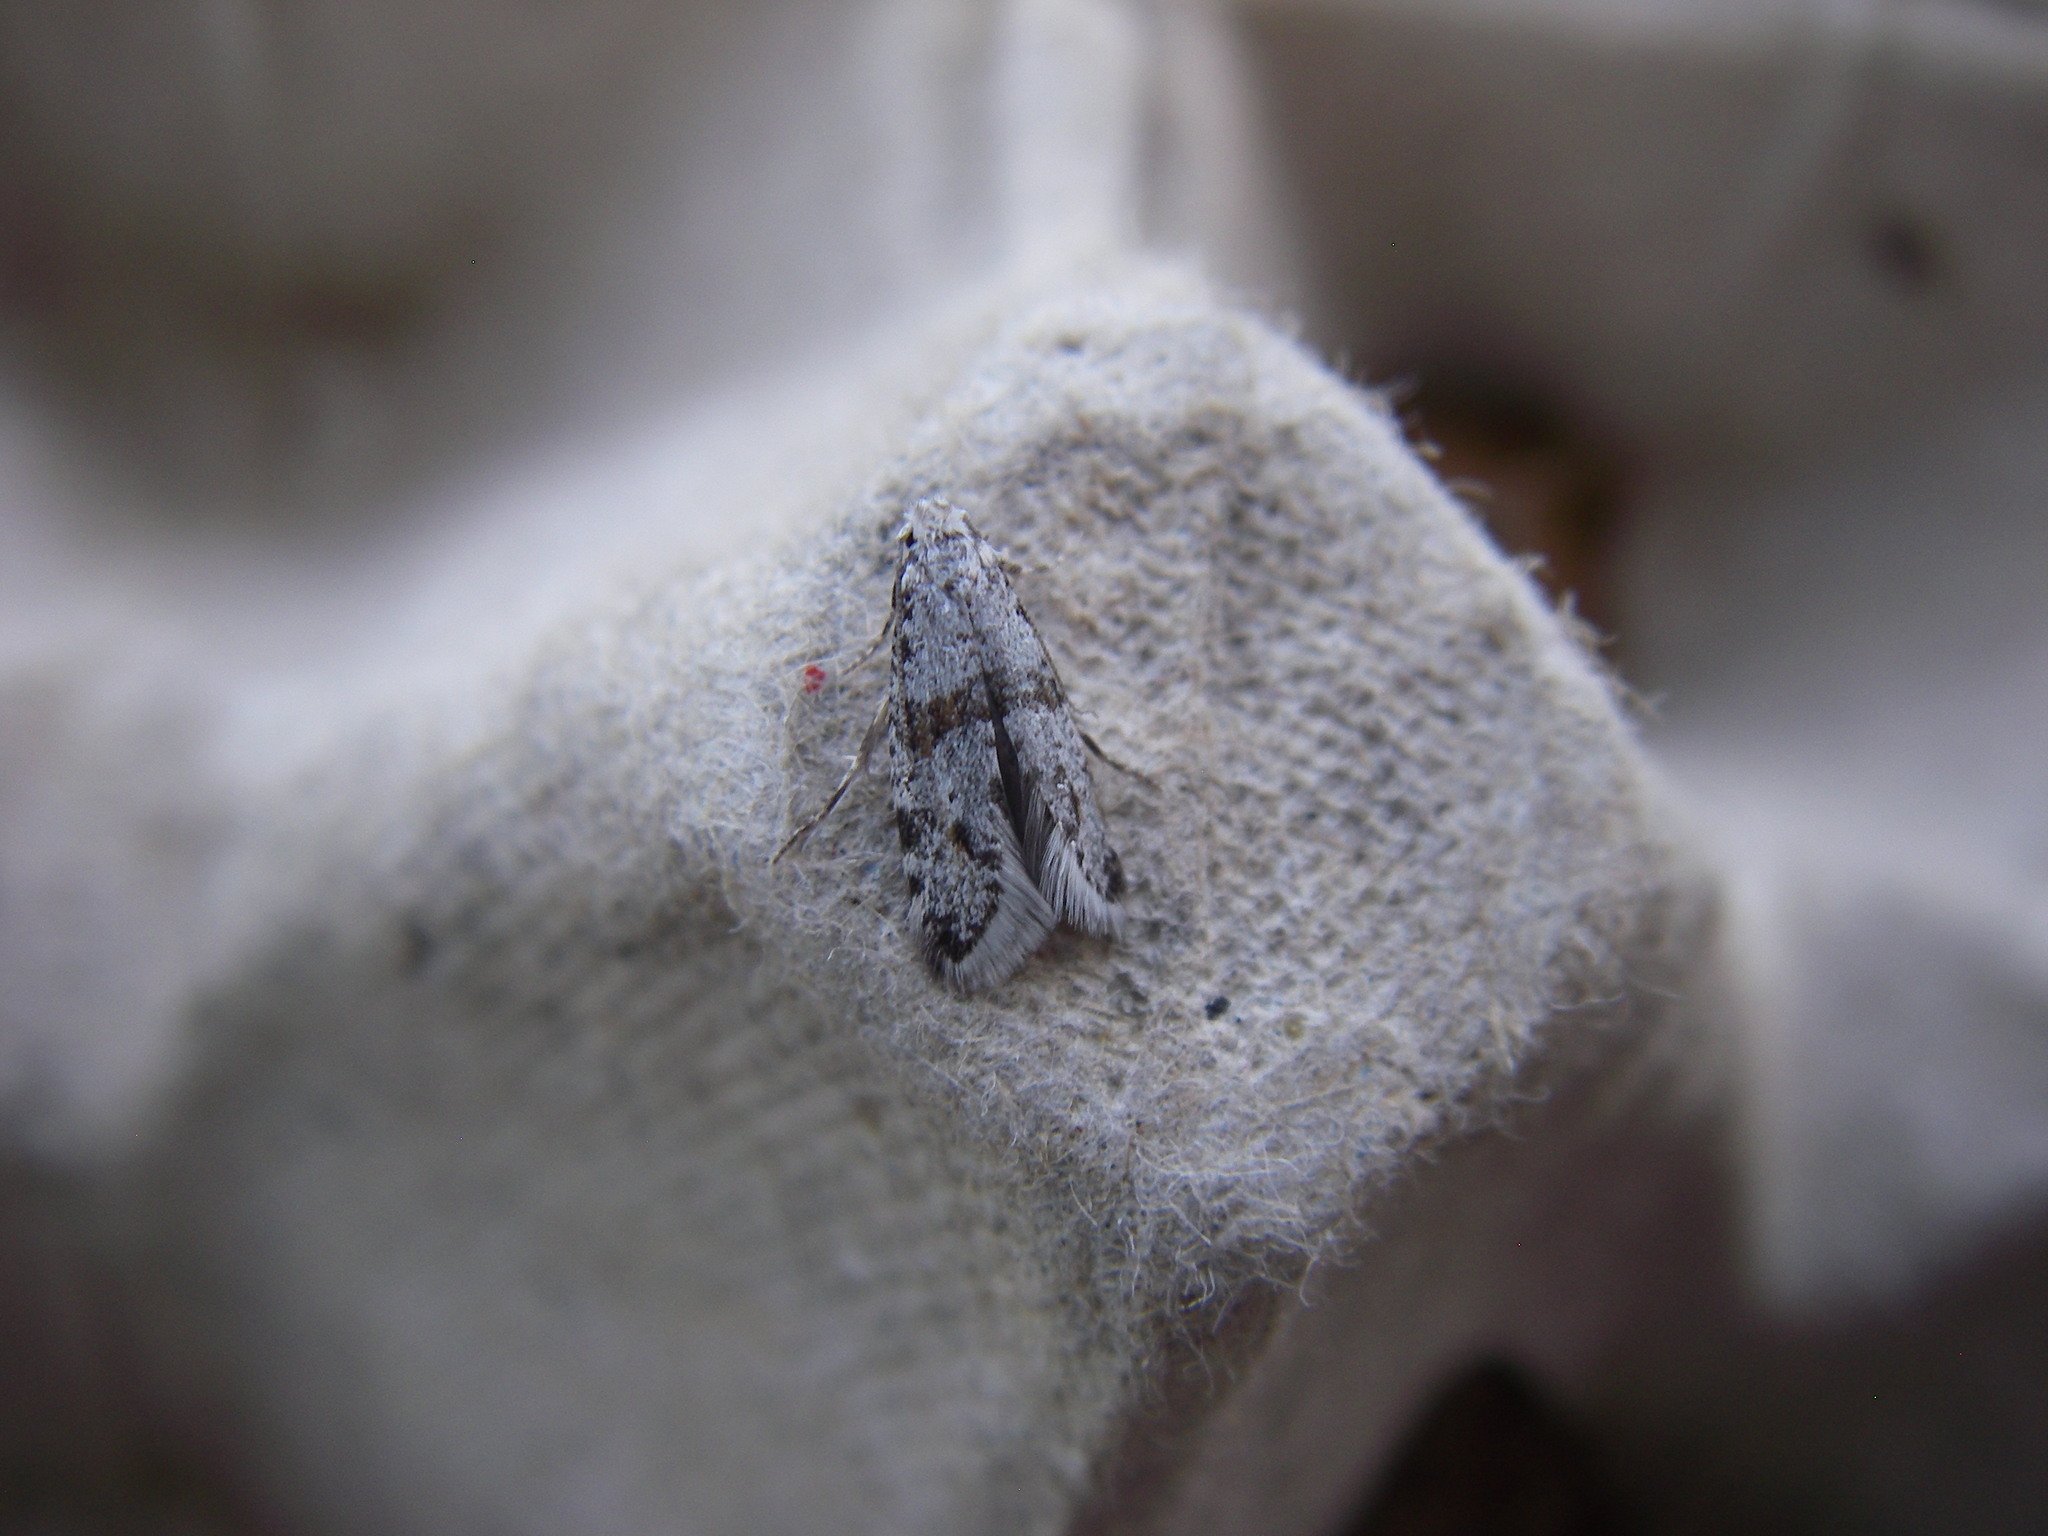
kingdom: Animalia
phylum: Arthropoda
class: Insecta
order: Lepidoptera
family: Yponomeutidae
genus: Scythropia
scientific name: Scythropia crataegella
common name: Hawthorn moth
